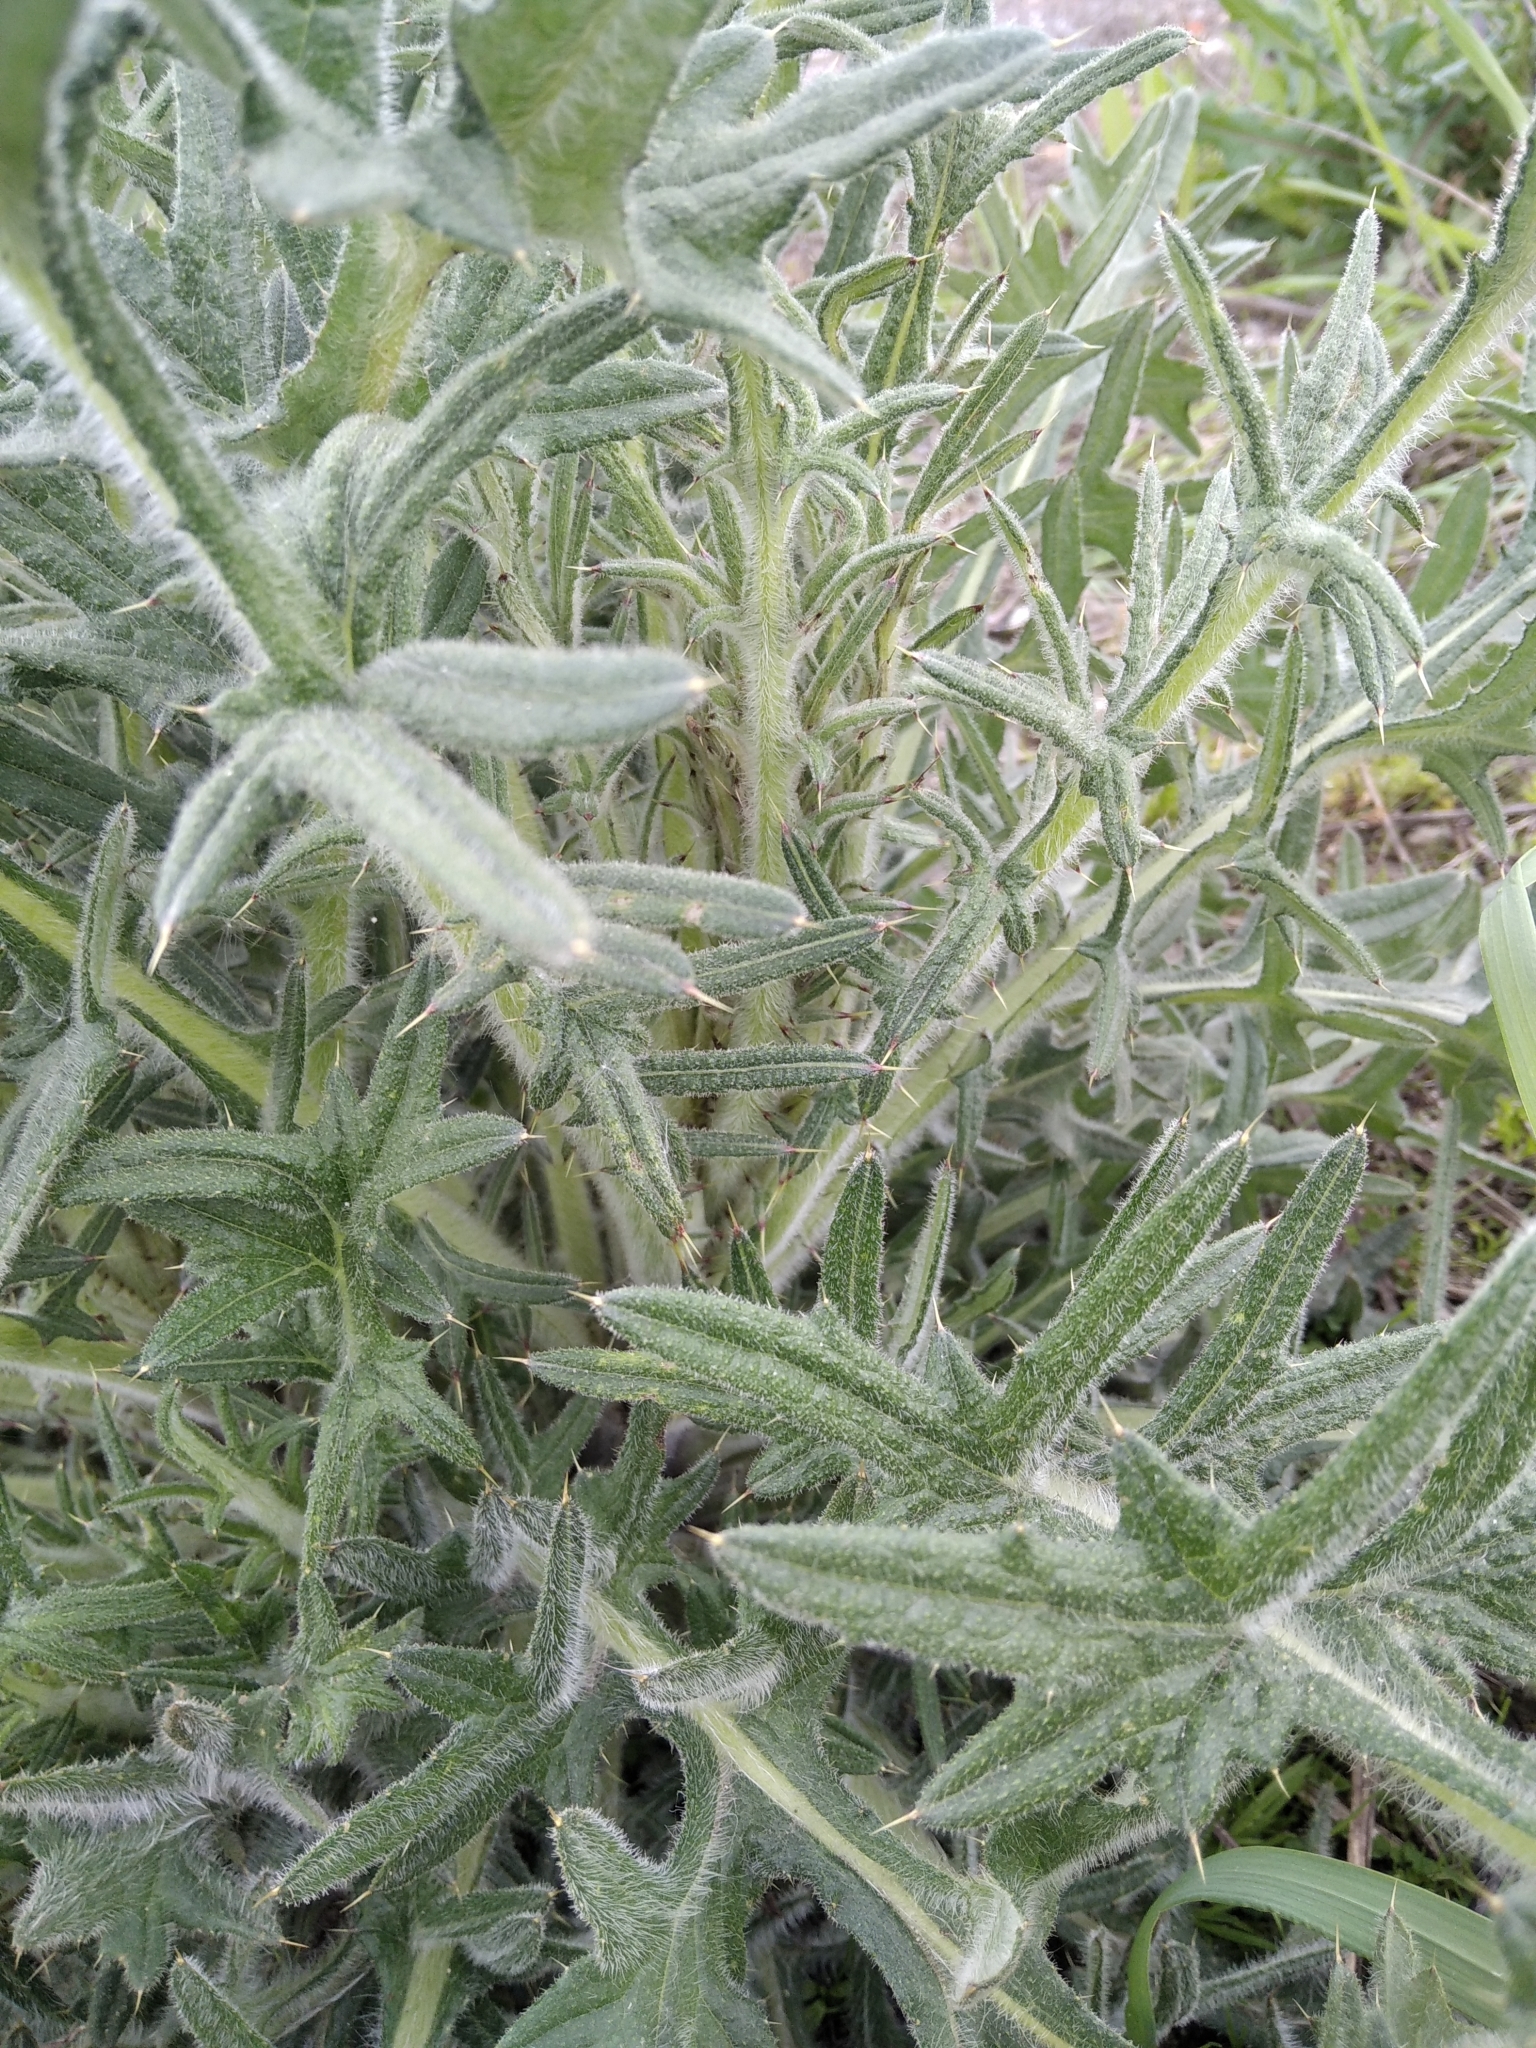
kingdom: Plantae
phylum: Tracheophyta
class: Magnoliopsida
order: Asterales
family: Asteraceae
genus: Cirsium
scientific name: Cirsium vulgare
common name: Bull thistle
